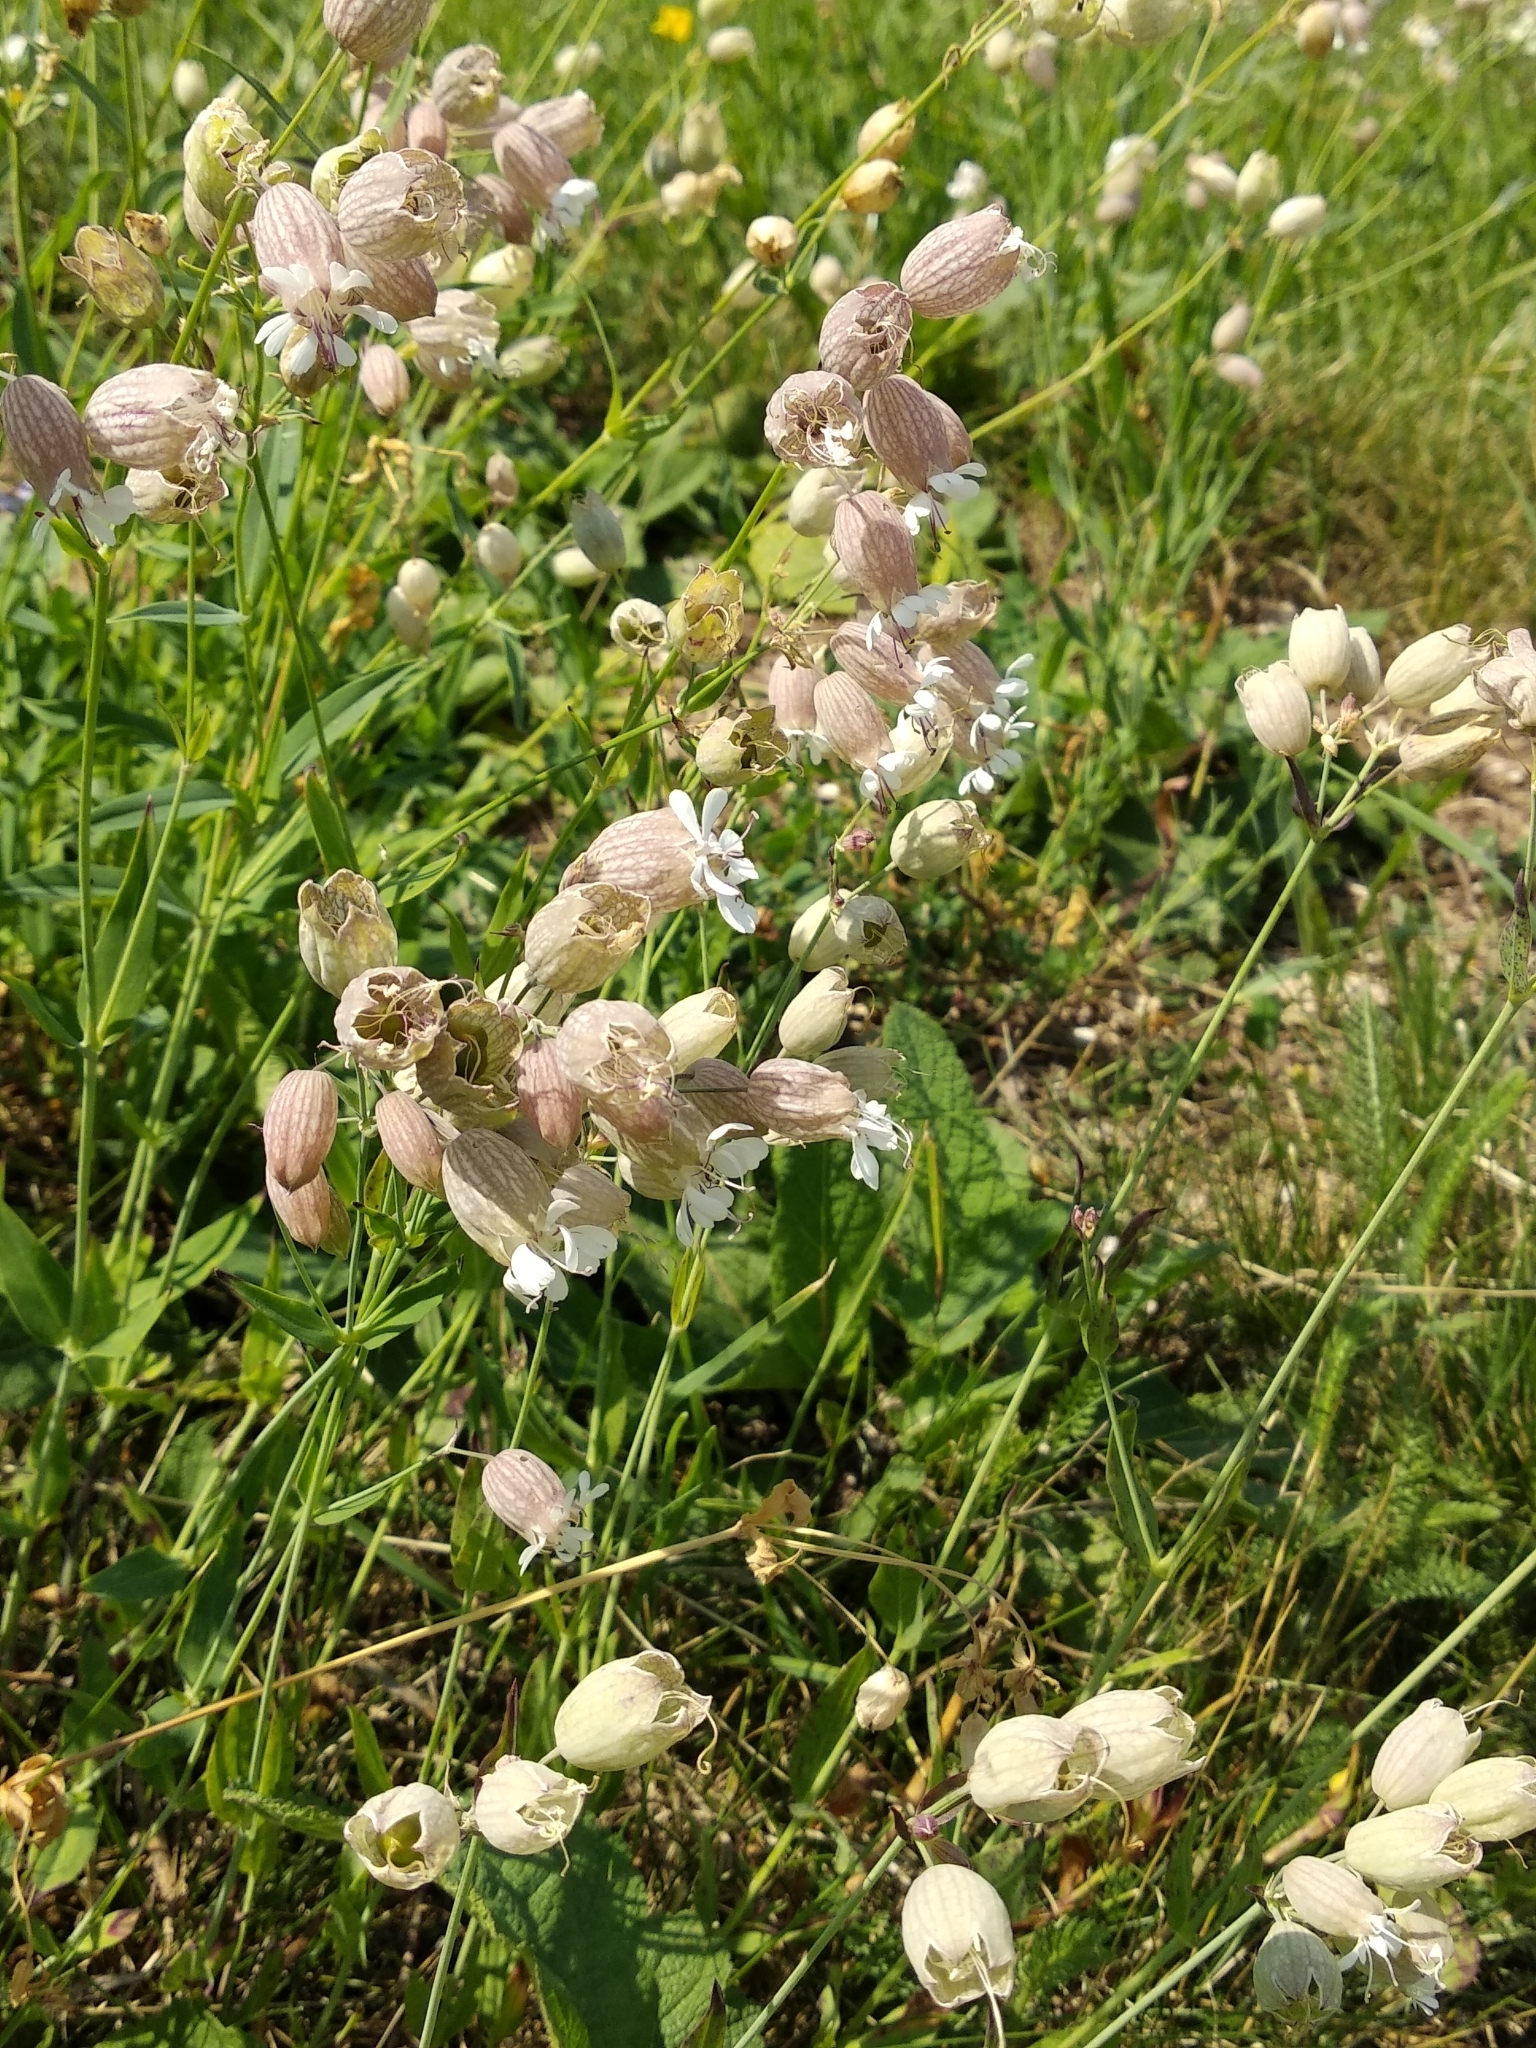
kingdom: Plantae
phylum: Tracheophyta
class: Magnoliopsida
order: Caryophyllales
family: Caryophyllaceae
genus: Silene
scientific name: Silene vulgaris
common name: Bladder campion
